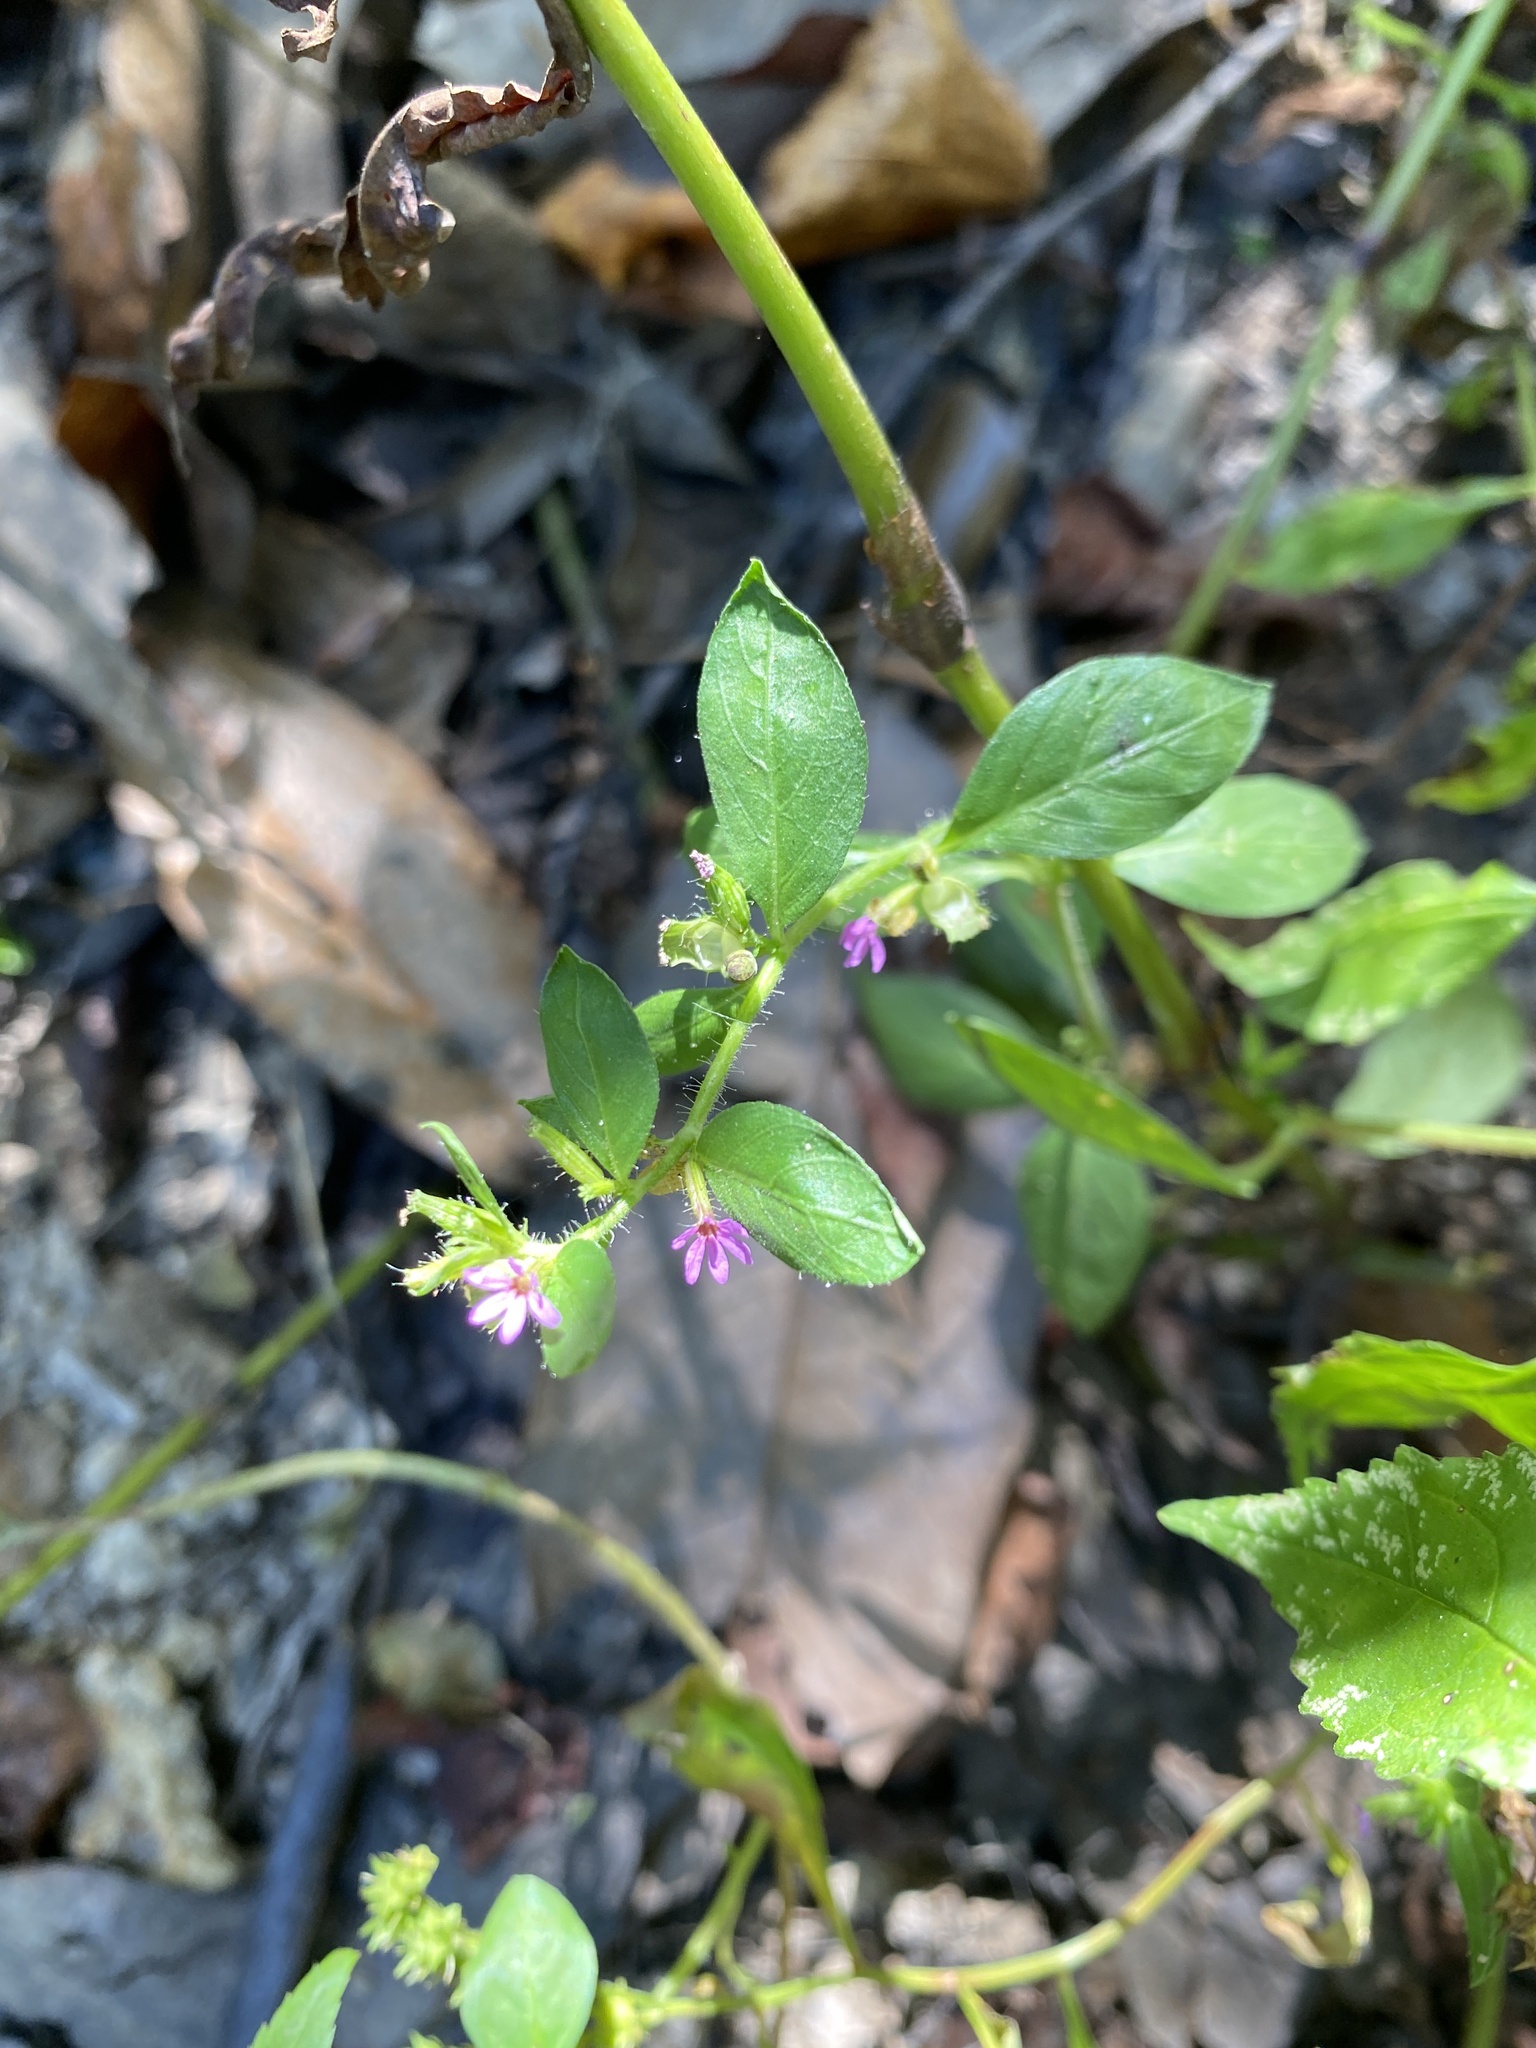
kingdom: Plantae
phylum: Tracheophyta
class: Magnoliopsida
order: Myrtales
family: Lythraceae
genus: Cuphea
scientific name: Cuphea carthagenensis
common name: Colombian waxweed
